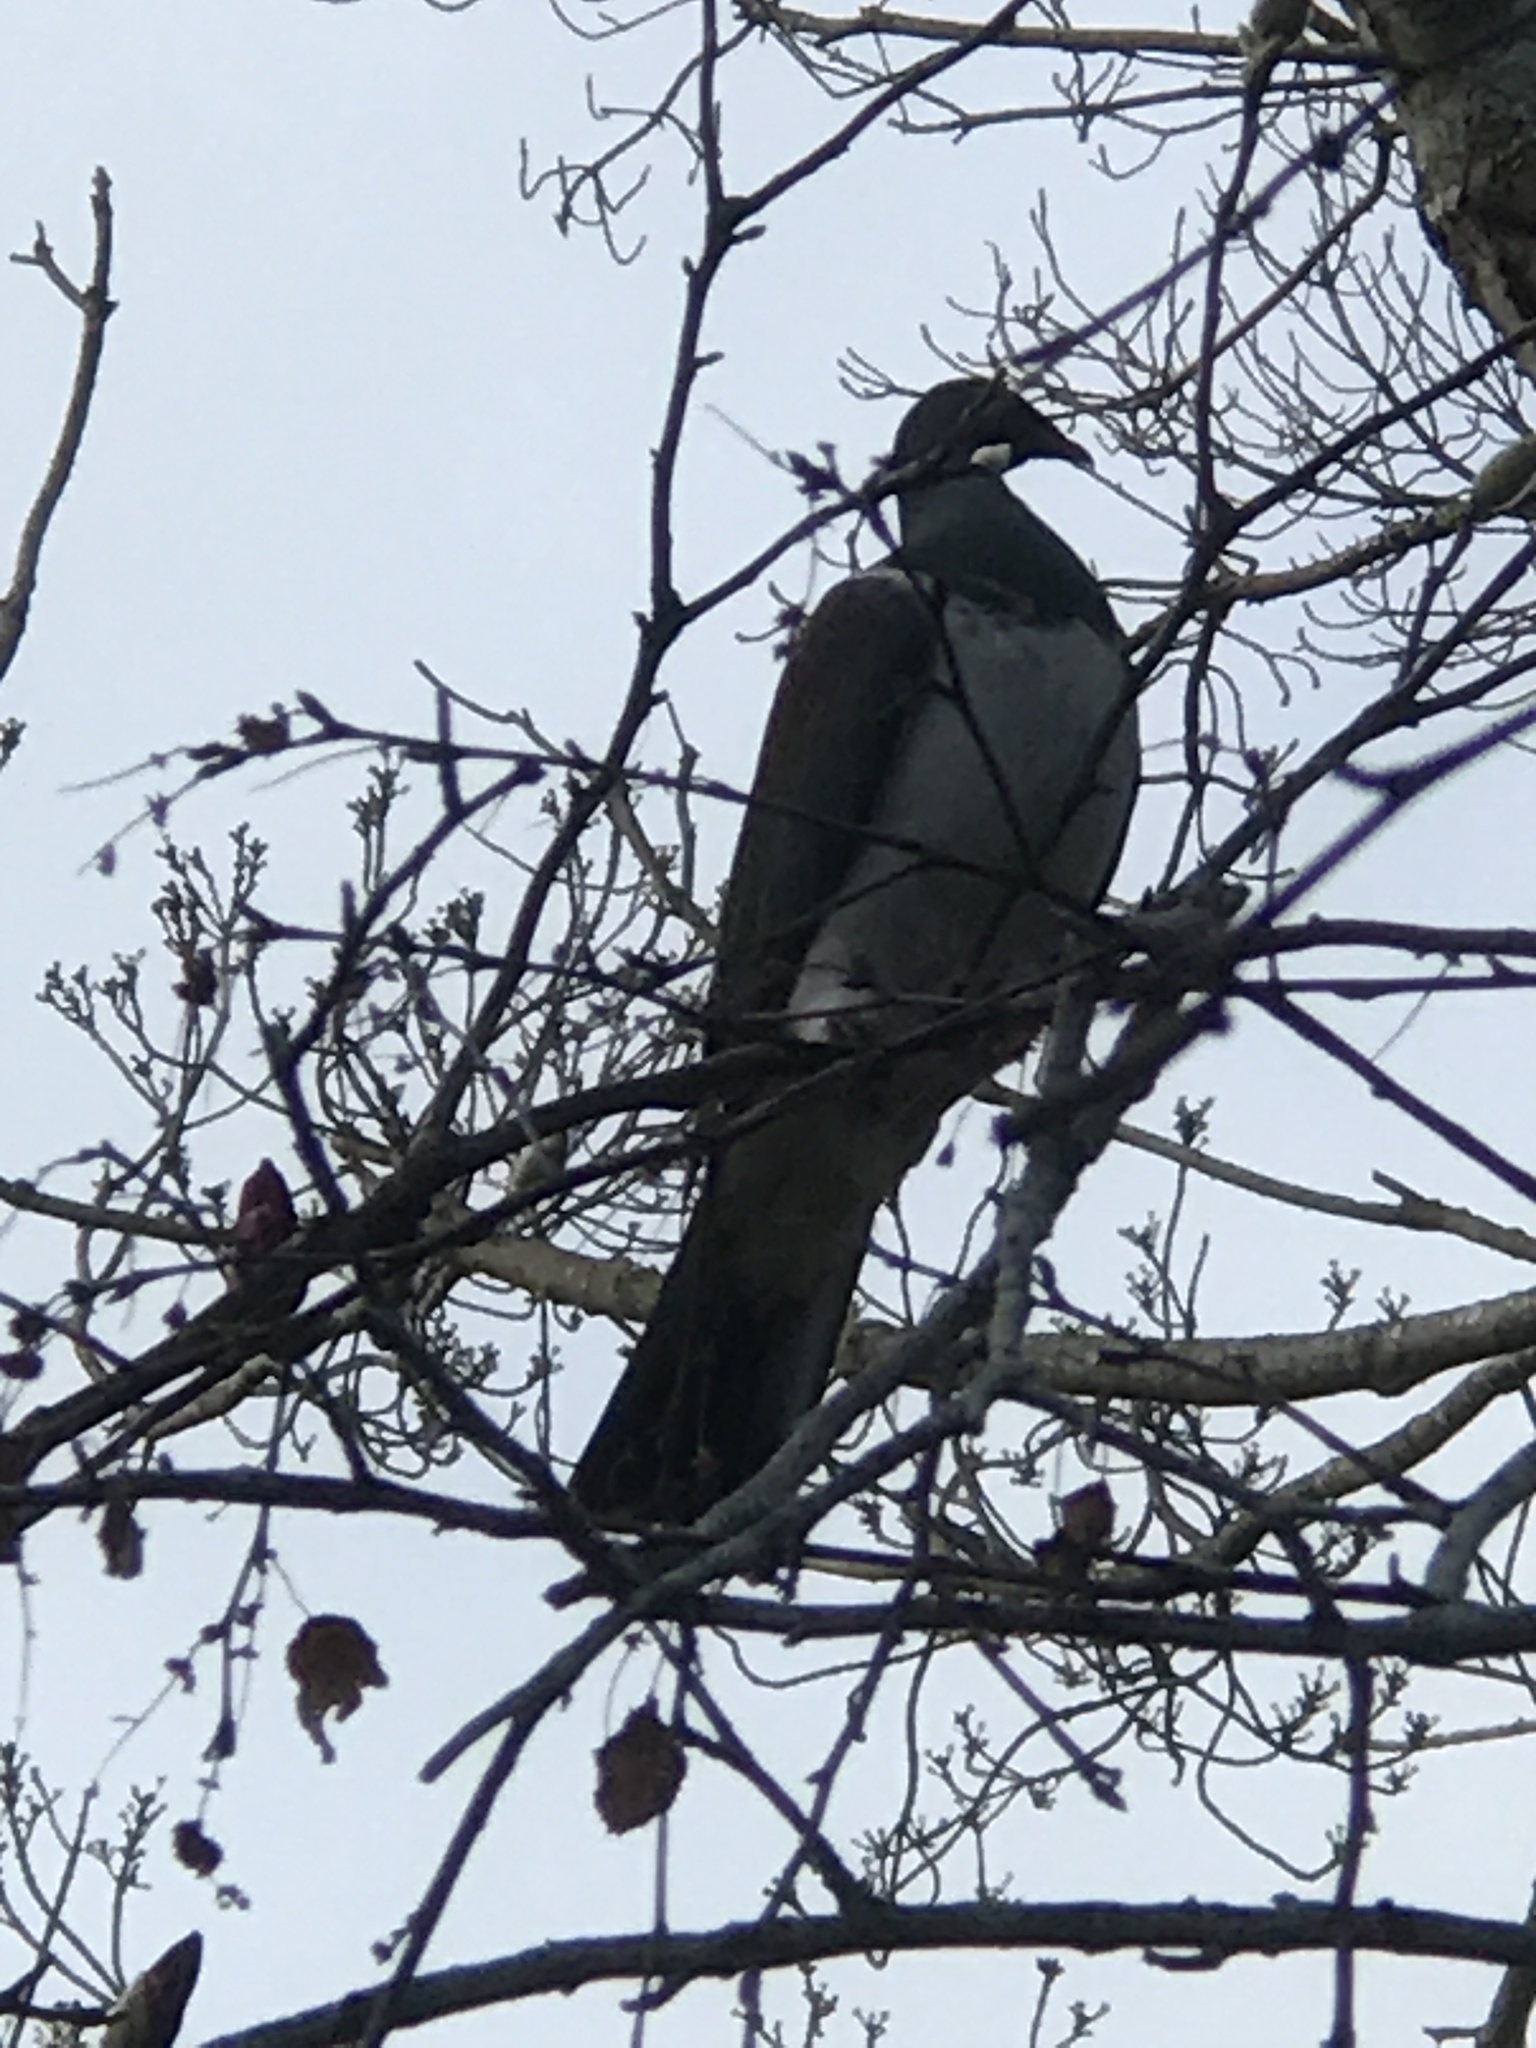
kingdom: Animalia
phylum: Chordata
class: Aves
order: Columbiformes
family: Columbidae
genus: Hemiphaga
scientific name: Hemiphaga novaeseelandiae
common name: New zealand pigeon
